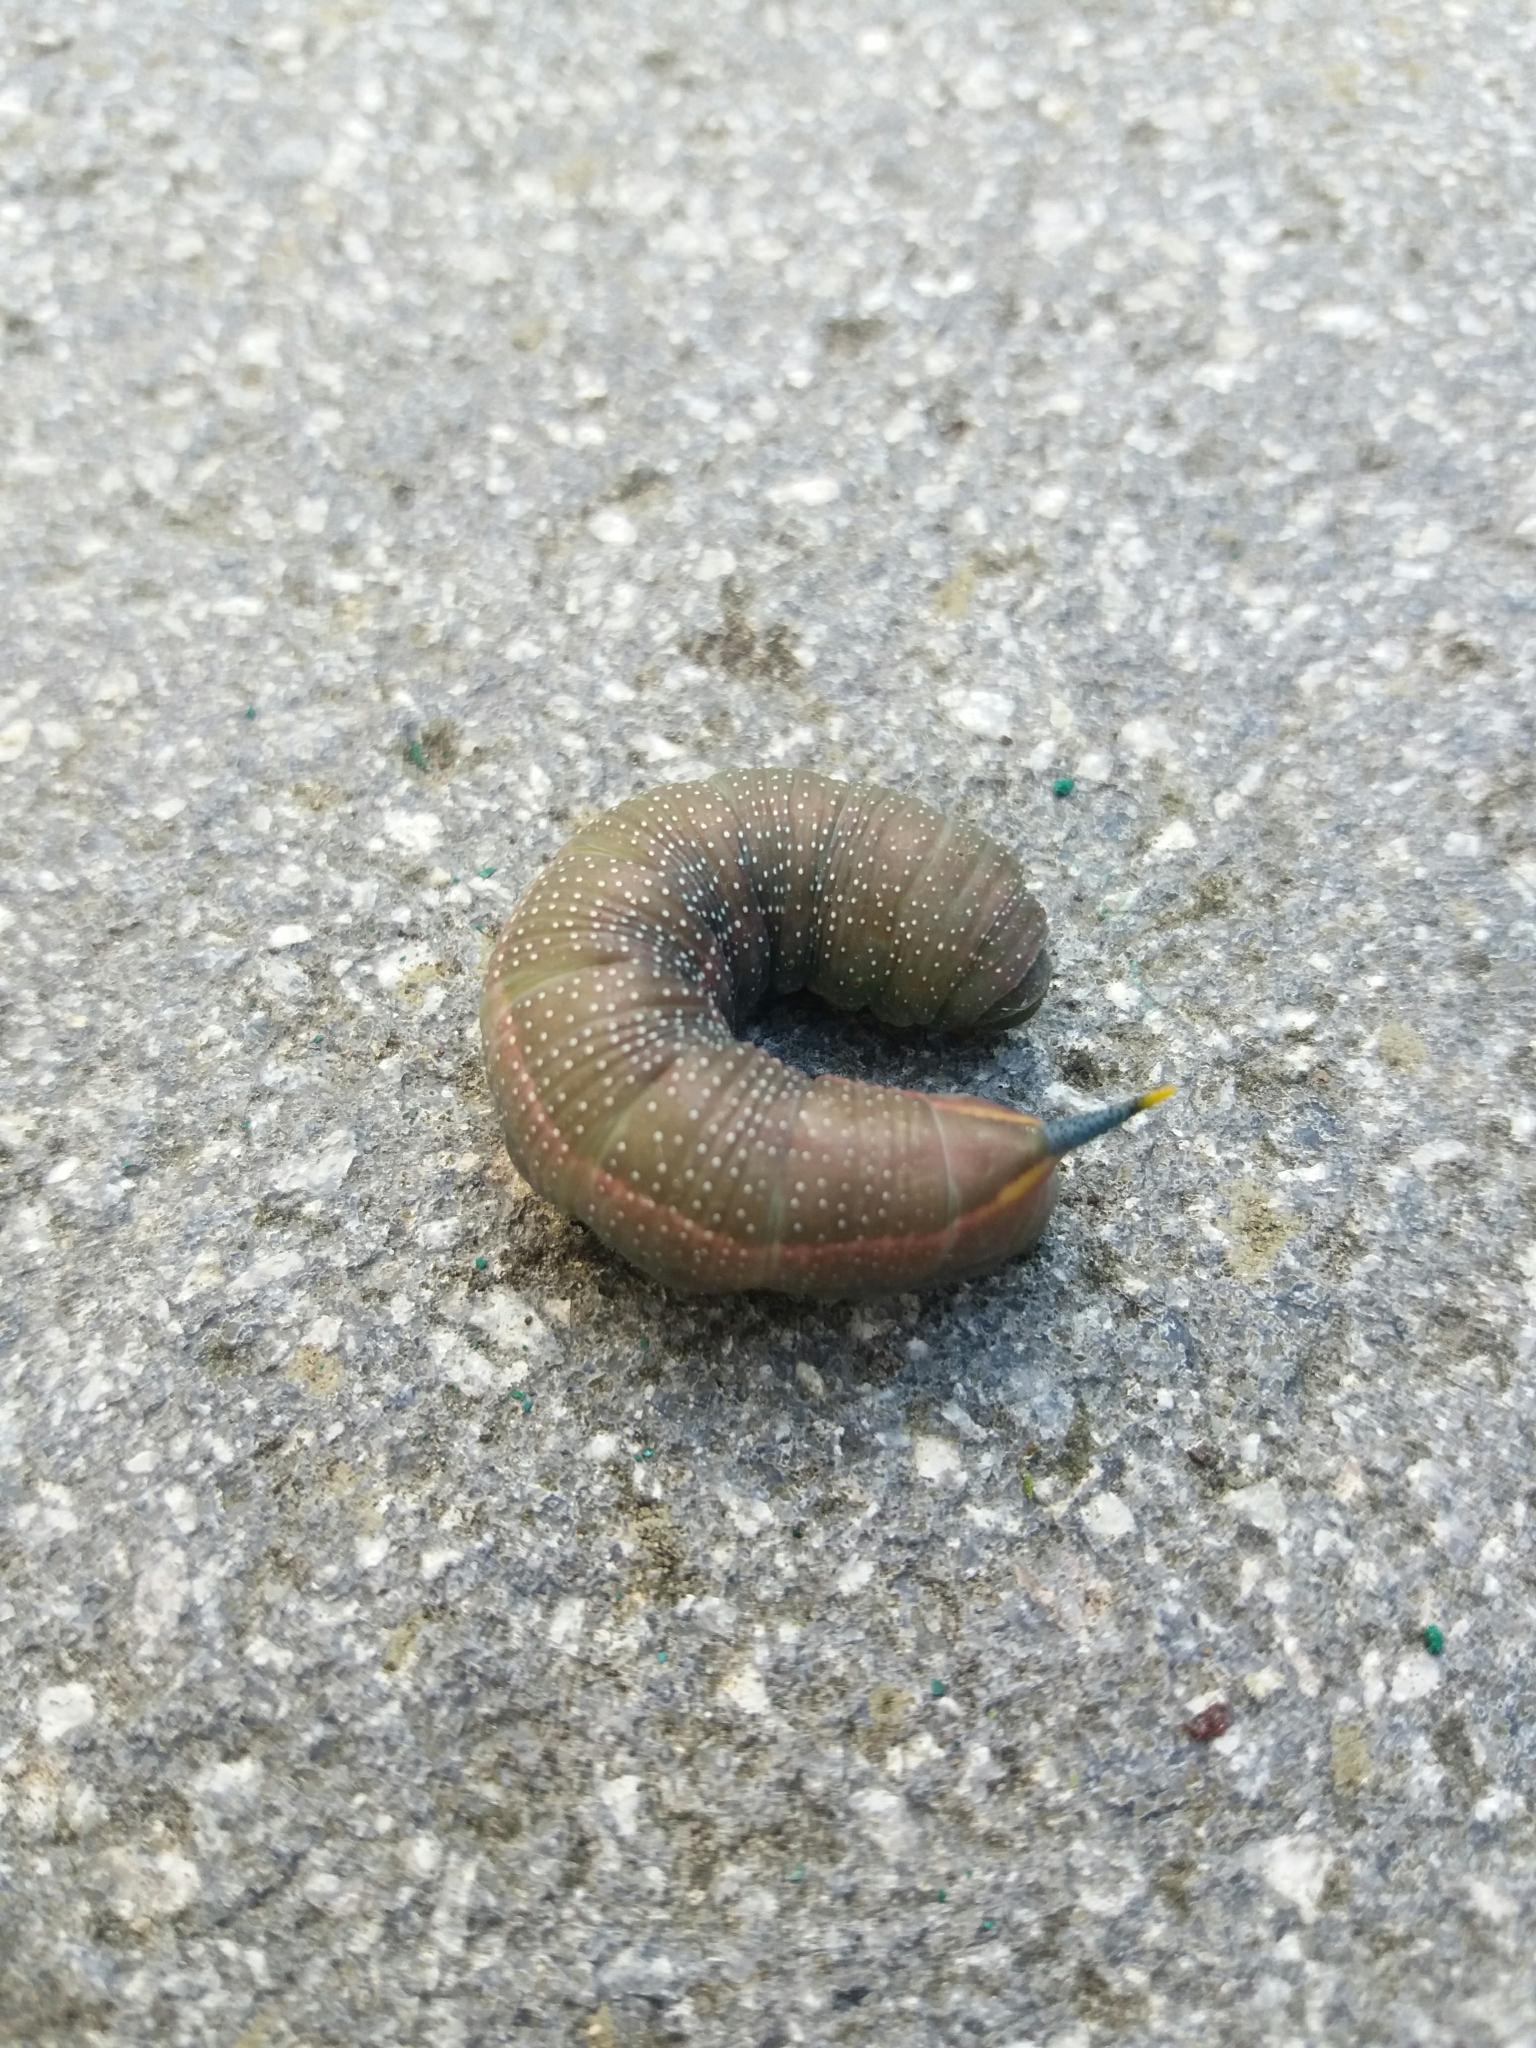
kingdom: Animalia
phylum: Arthropoda
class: Insecta
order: Lepidoptera
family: Sphingidae
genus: Macroglossum
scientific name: Macroglossum stellatarum
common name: Humming-bird hawk-moth
